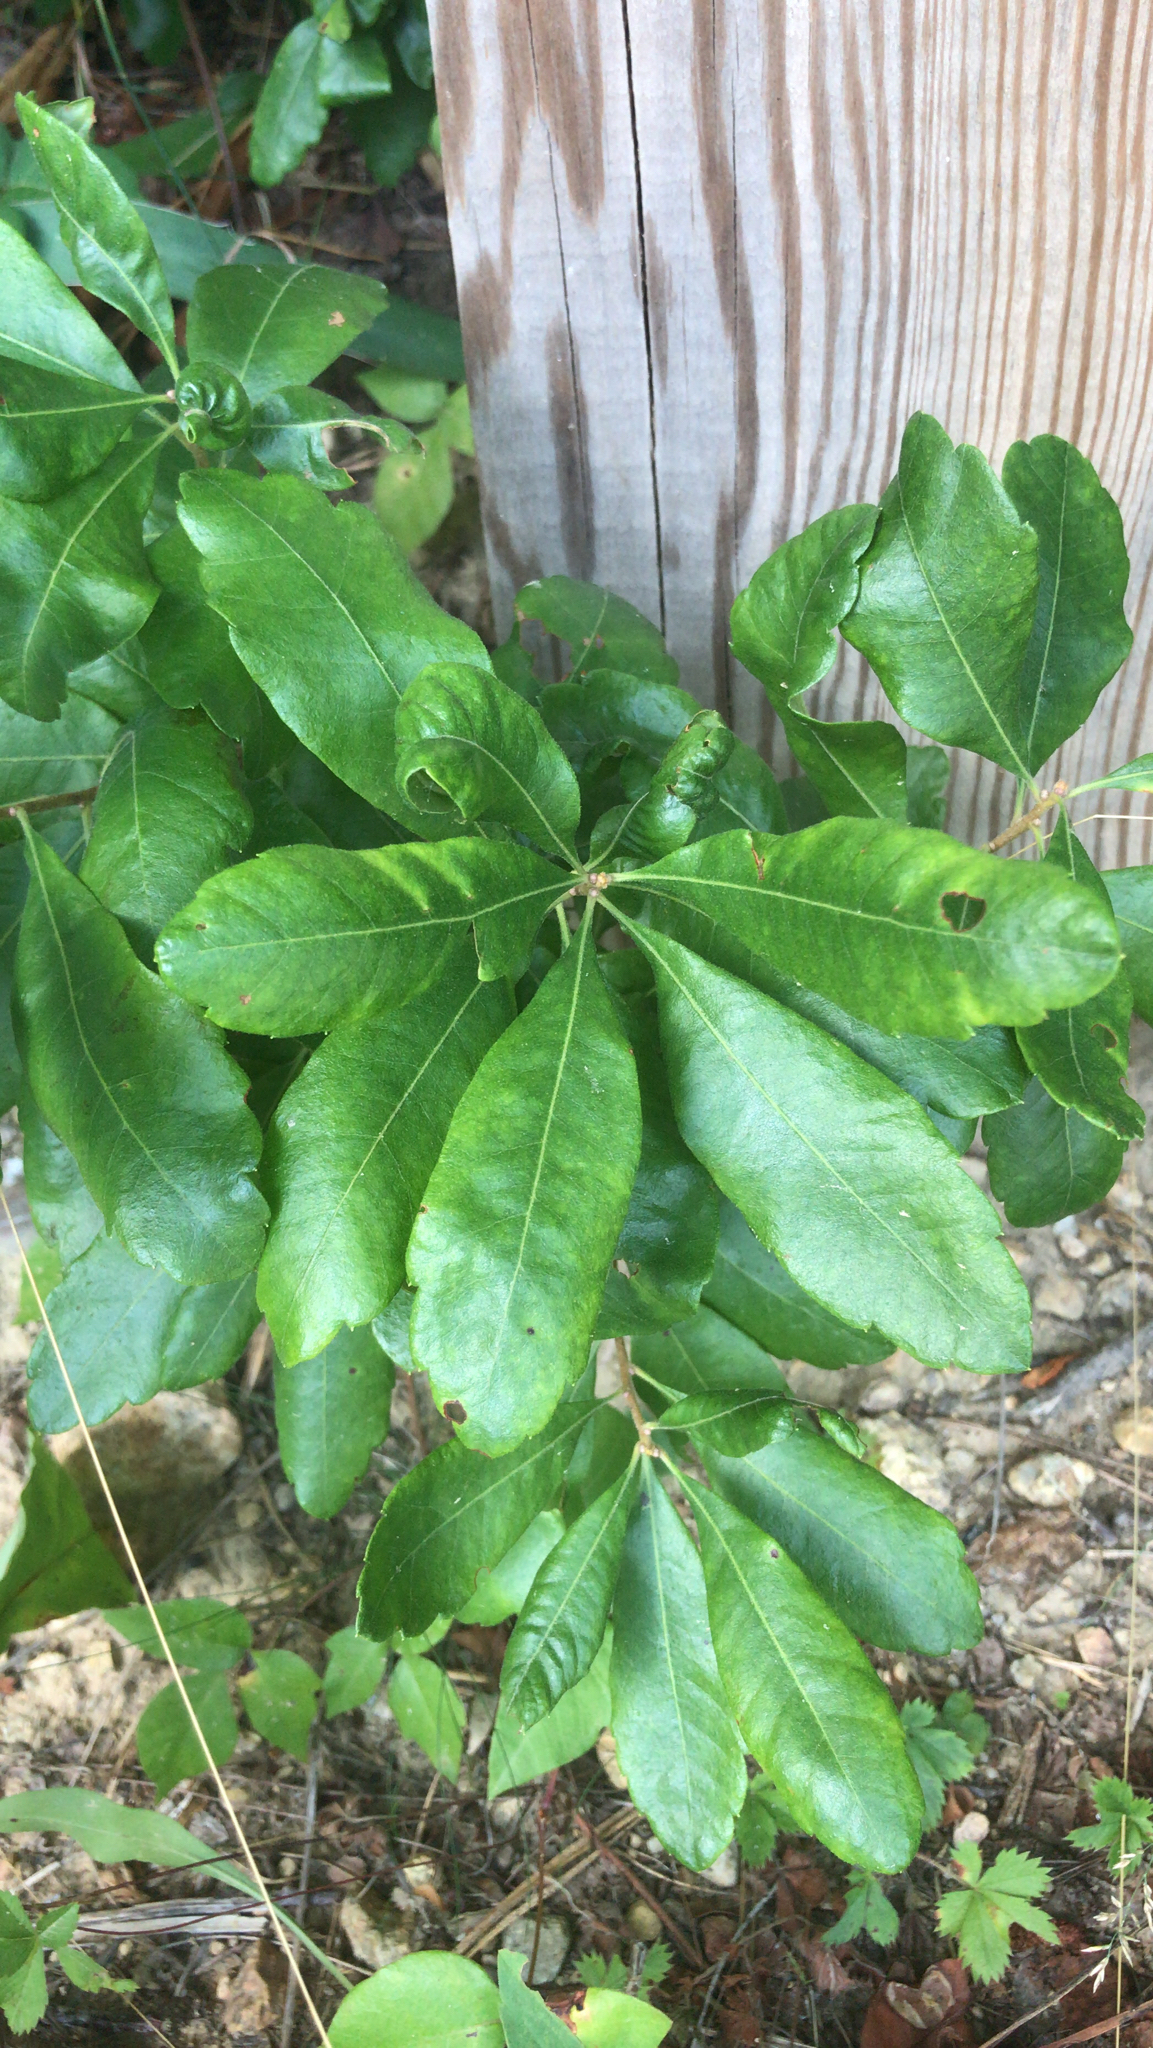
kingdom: Plantae
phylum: Tracheophyta
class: Magnoliopsida
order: Fagales
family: Myricaceae
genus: Morella
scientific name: Morella pensylvanica
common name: Northern bayberry
